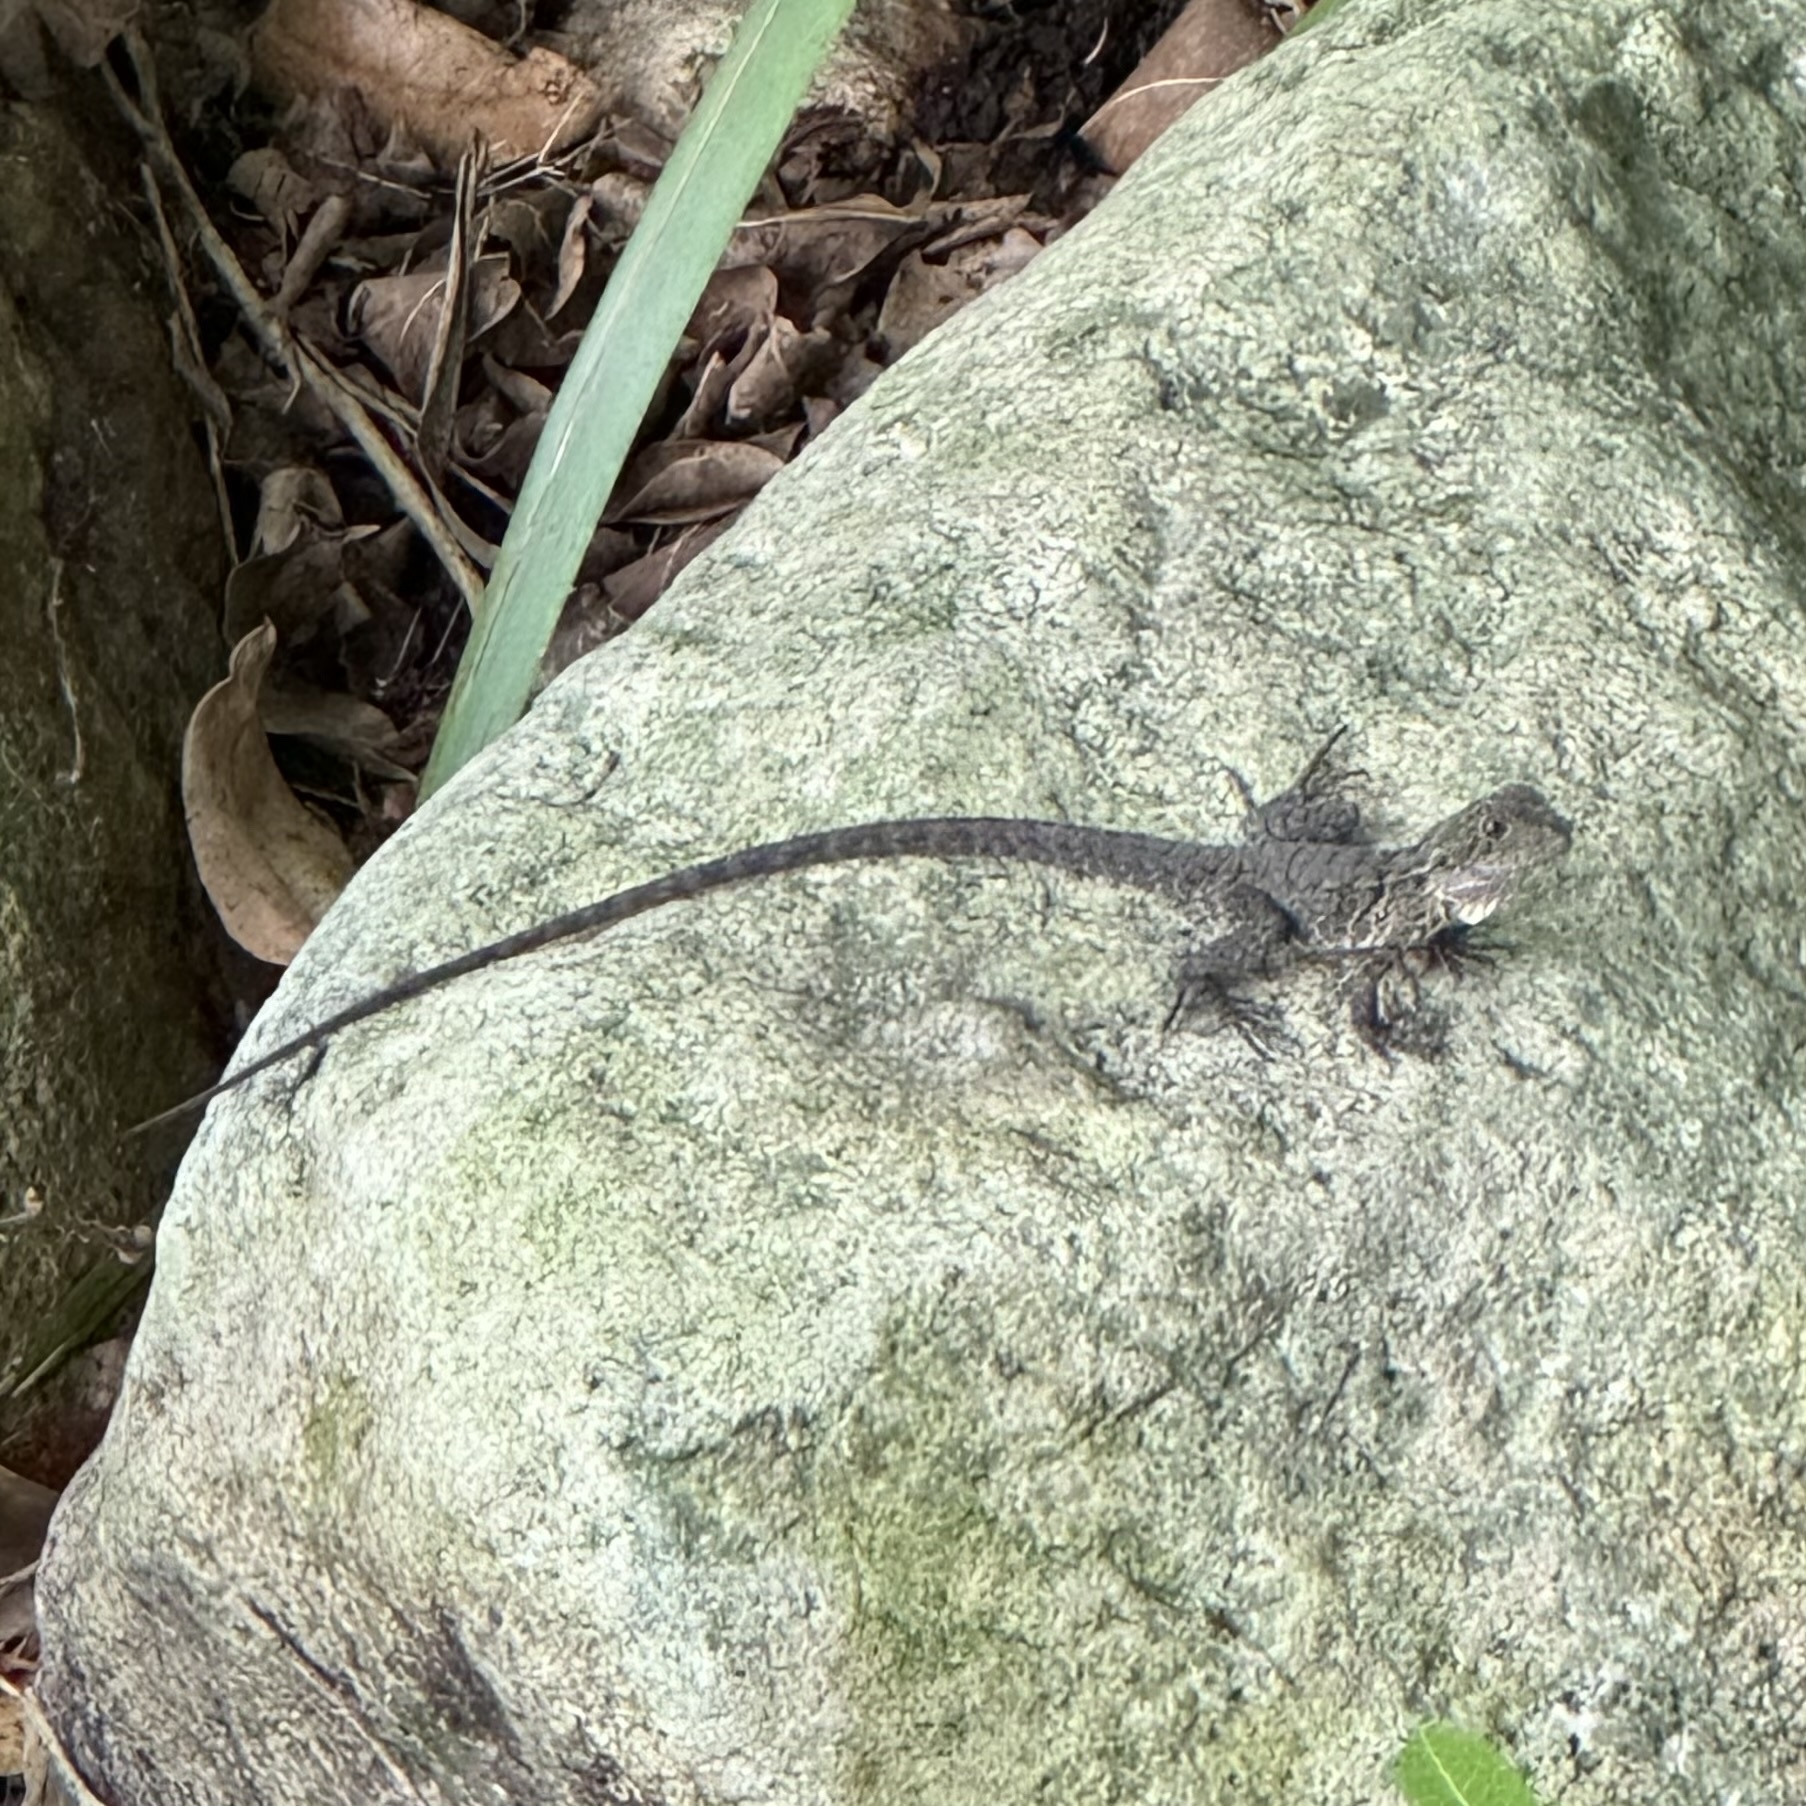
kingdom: Animalia
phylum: Chordata
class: Squamata
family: Agamidae
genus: Intellagama
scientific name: Intellagama lesueurii
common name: Eastern water dragon
